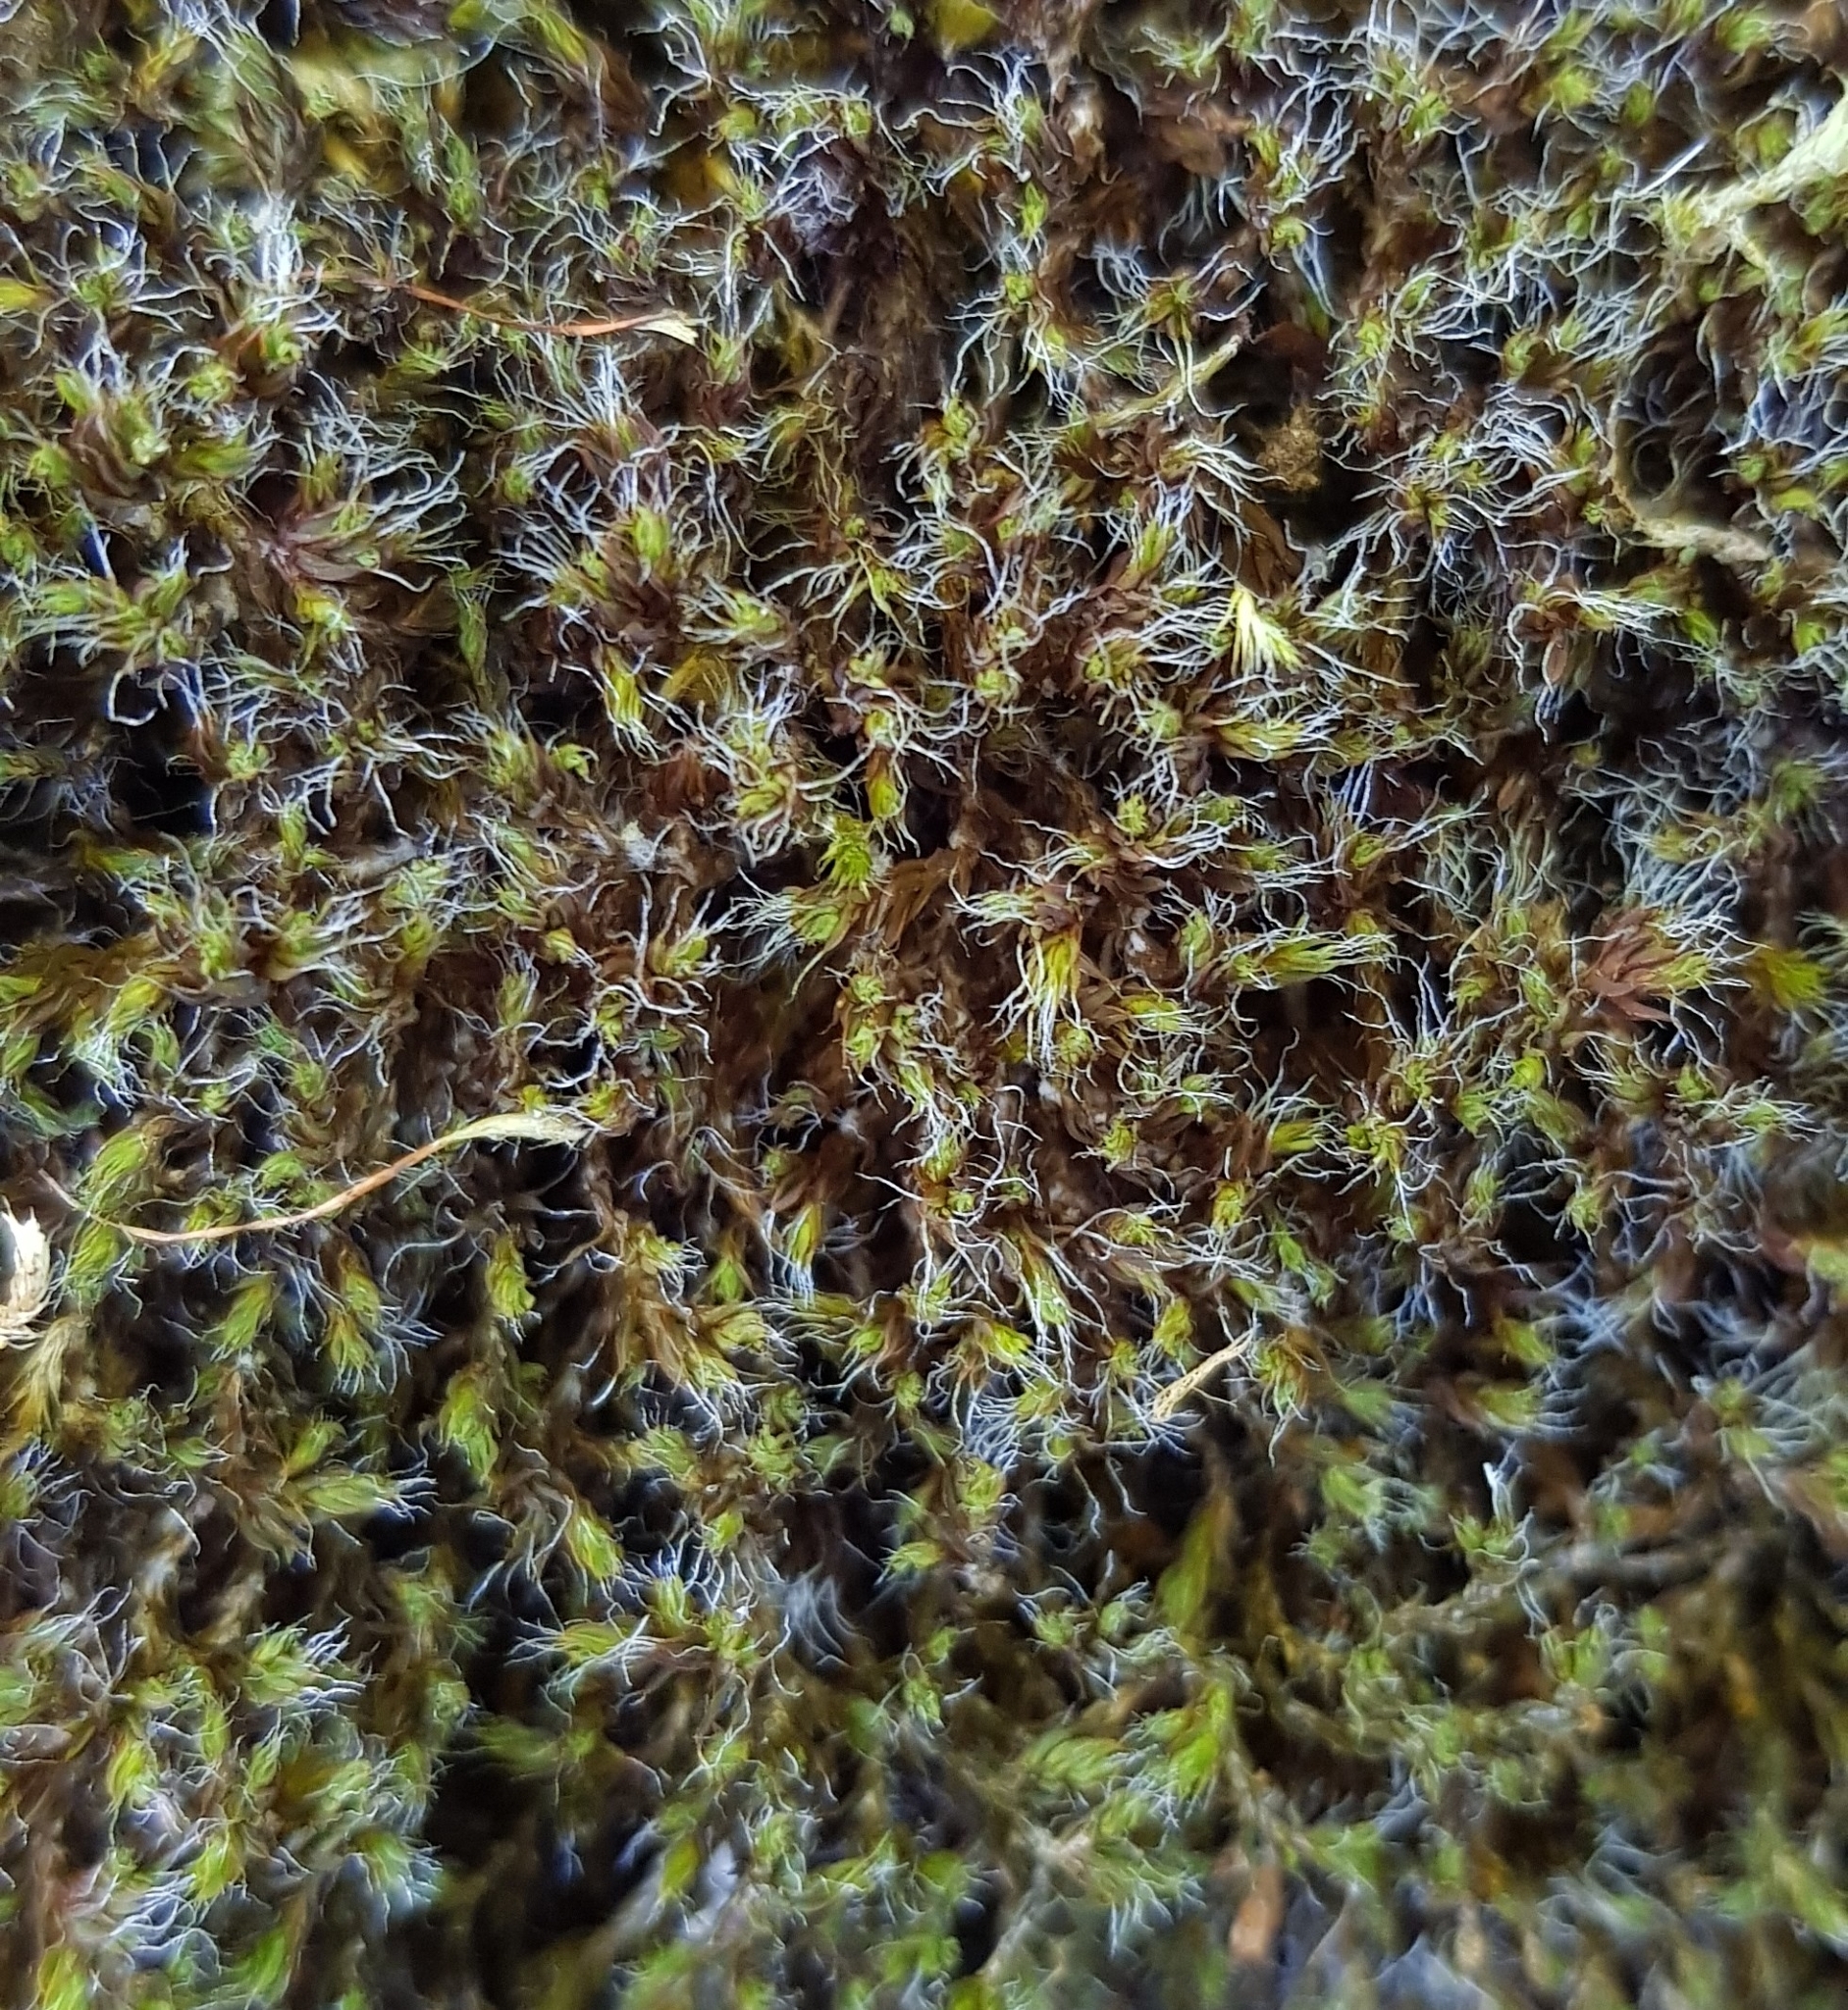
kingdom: Plantae
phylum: Bryophyta
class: Bryopsida
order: Pottiales
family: Pottiaceae
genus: Syntrichia
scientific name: Syntrichia ruralis
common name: Sidewalk screw moss
